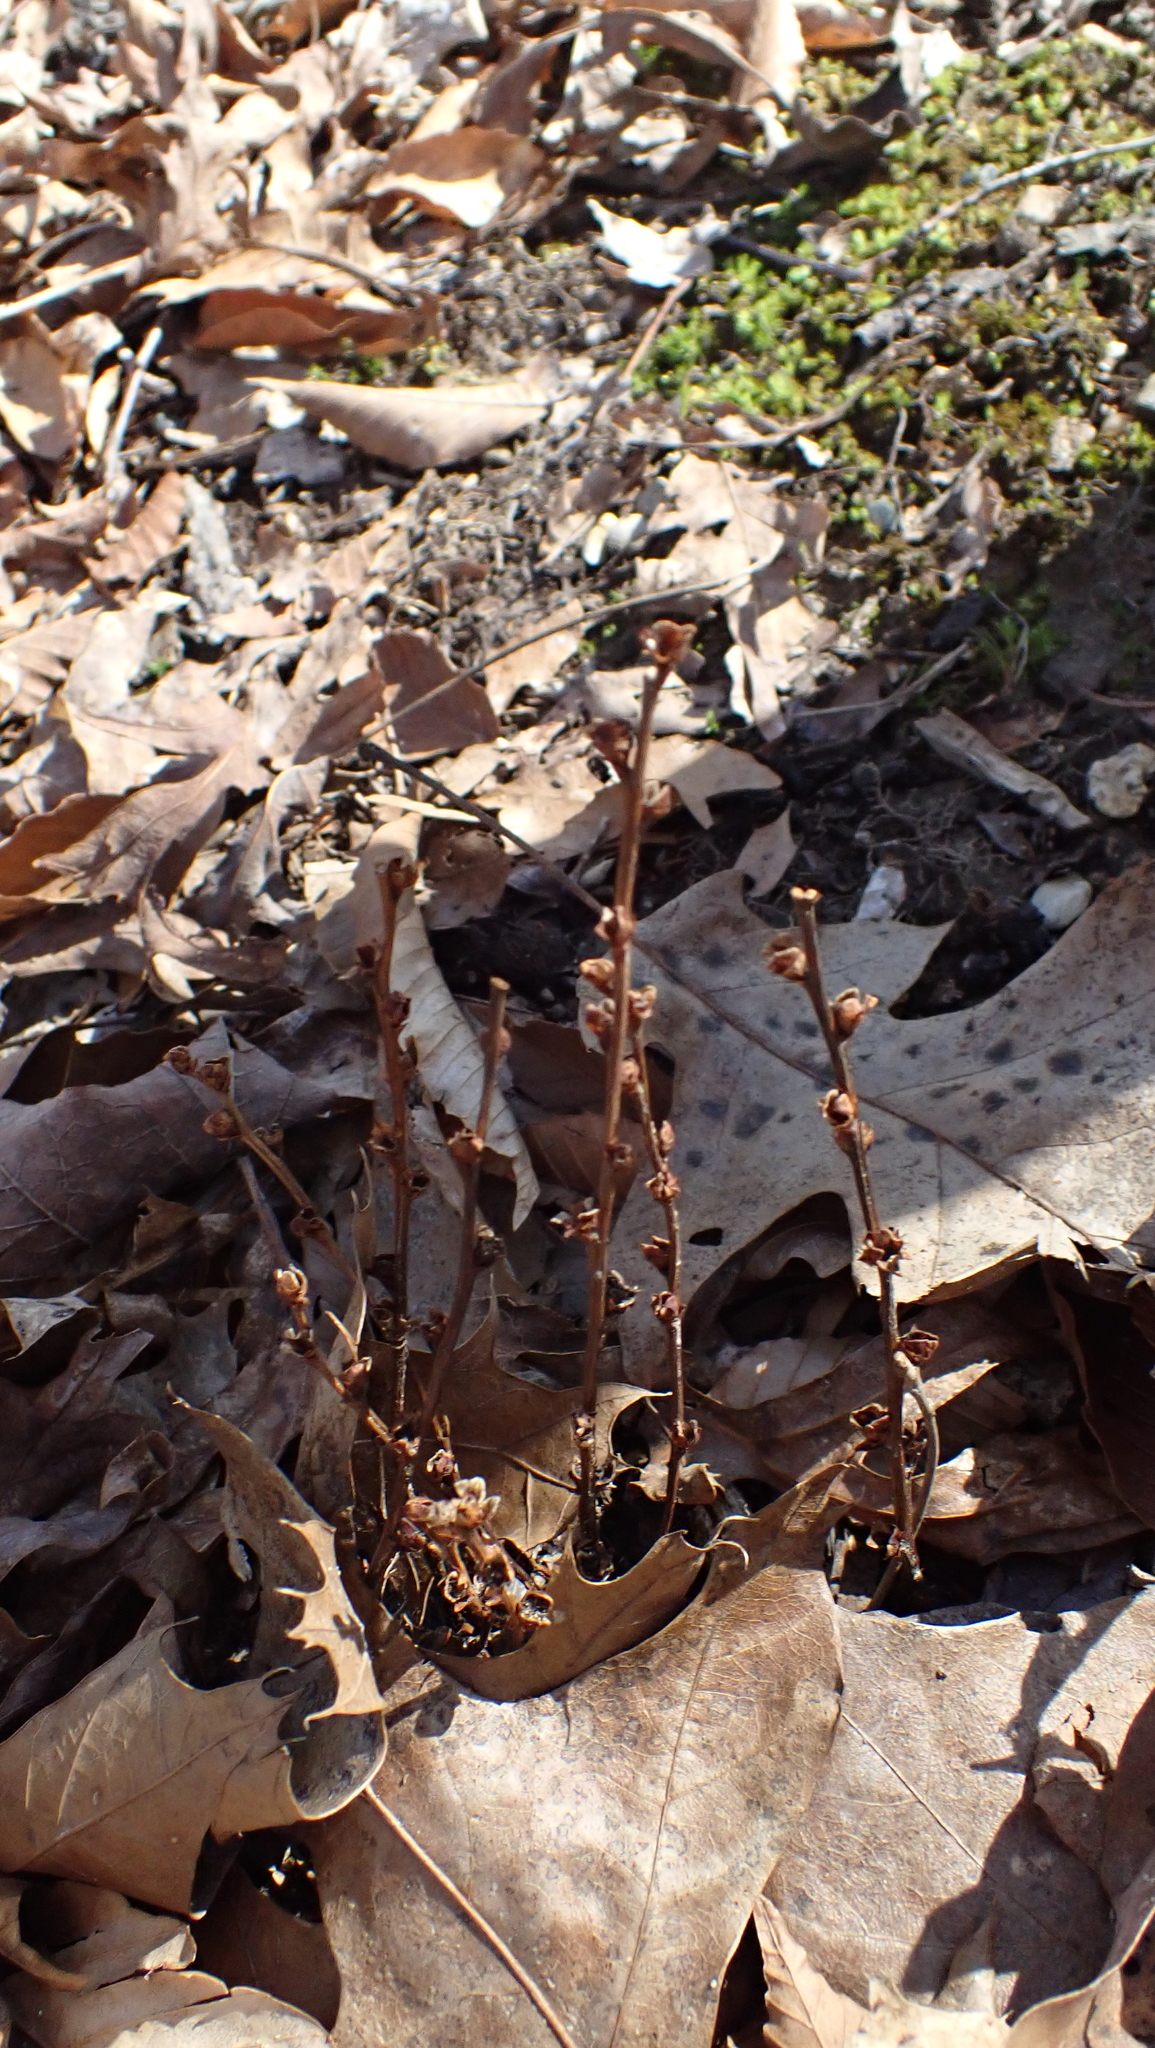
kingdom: Plantae
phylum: Tracheophyta
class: Magnoliopsida
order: Lamiales
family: Orobanchaceae
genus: Epifagus
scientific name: Epifagus virginiana
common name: Beechdrops
